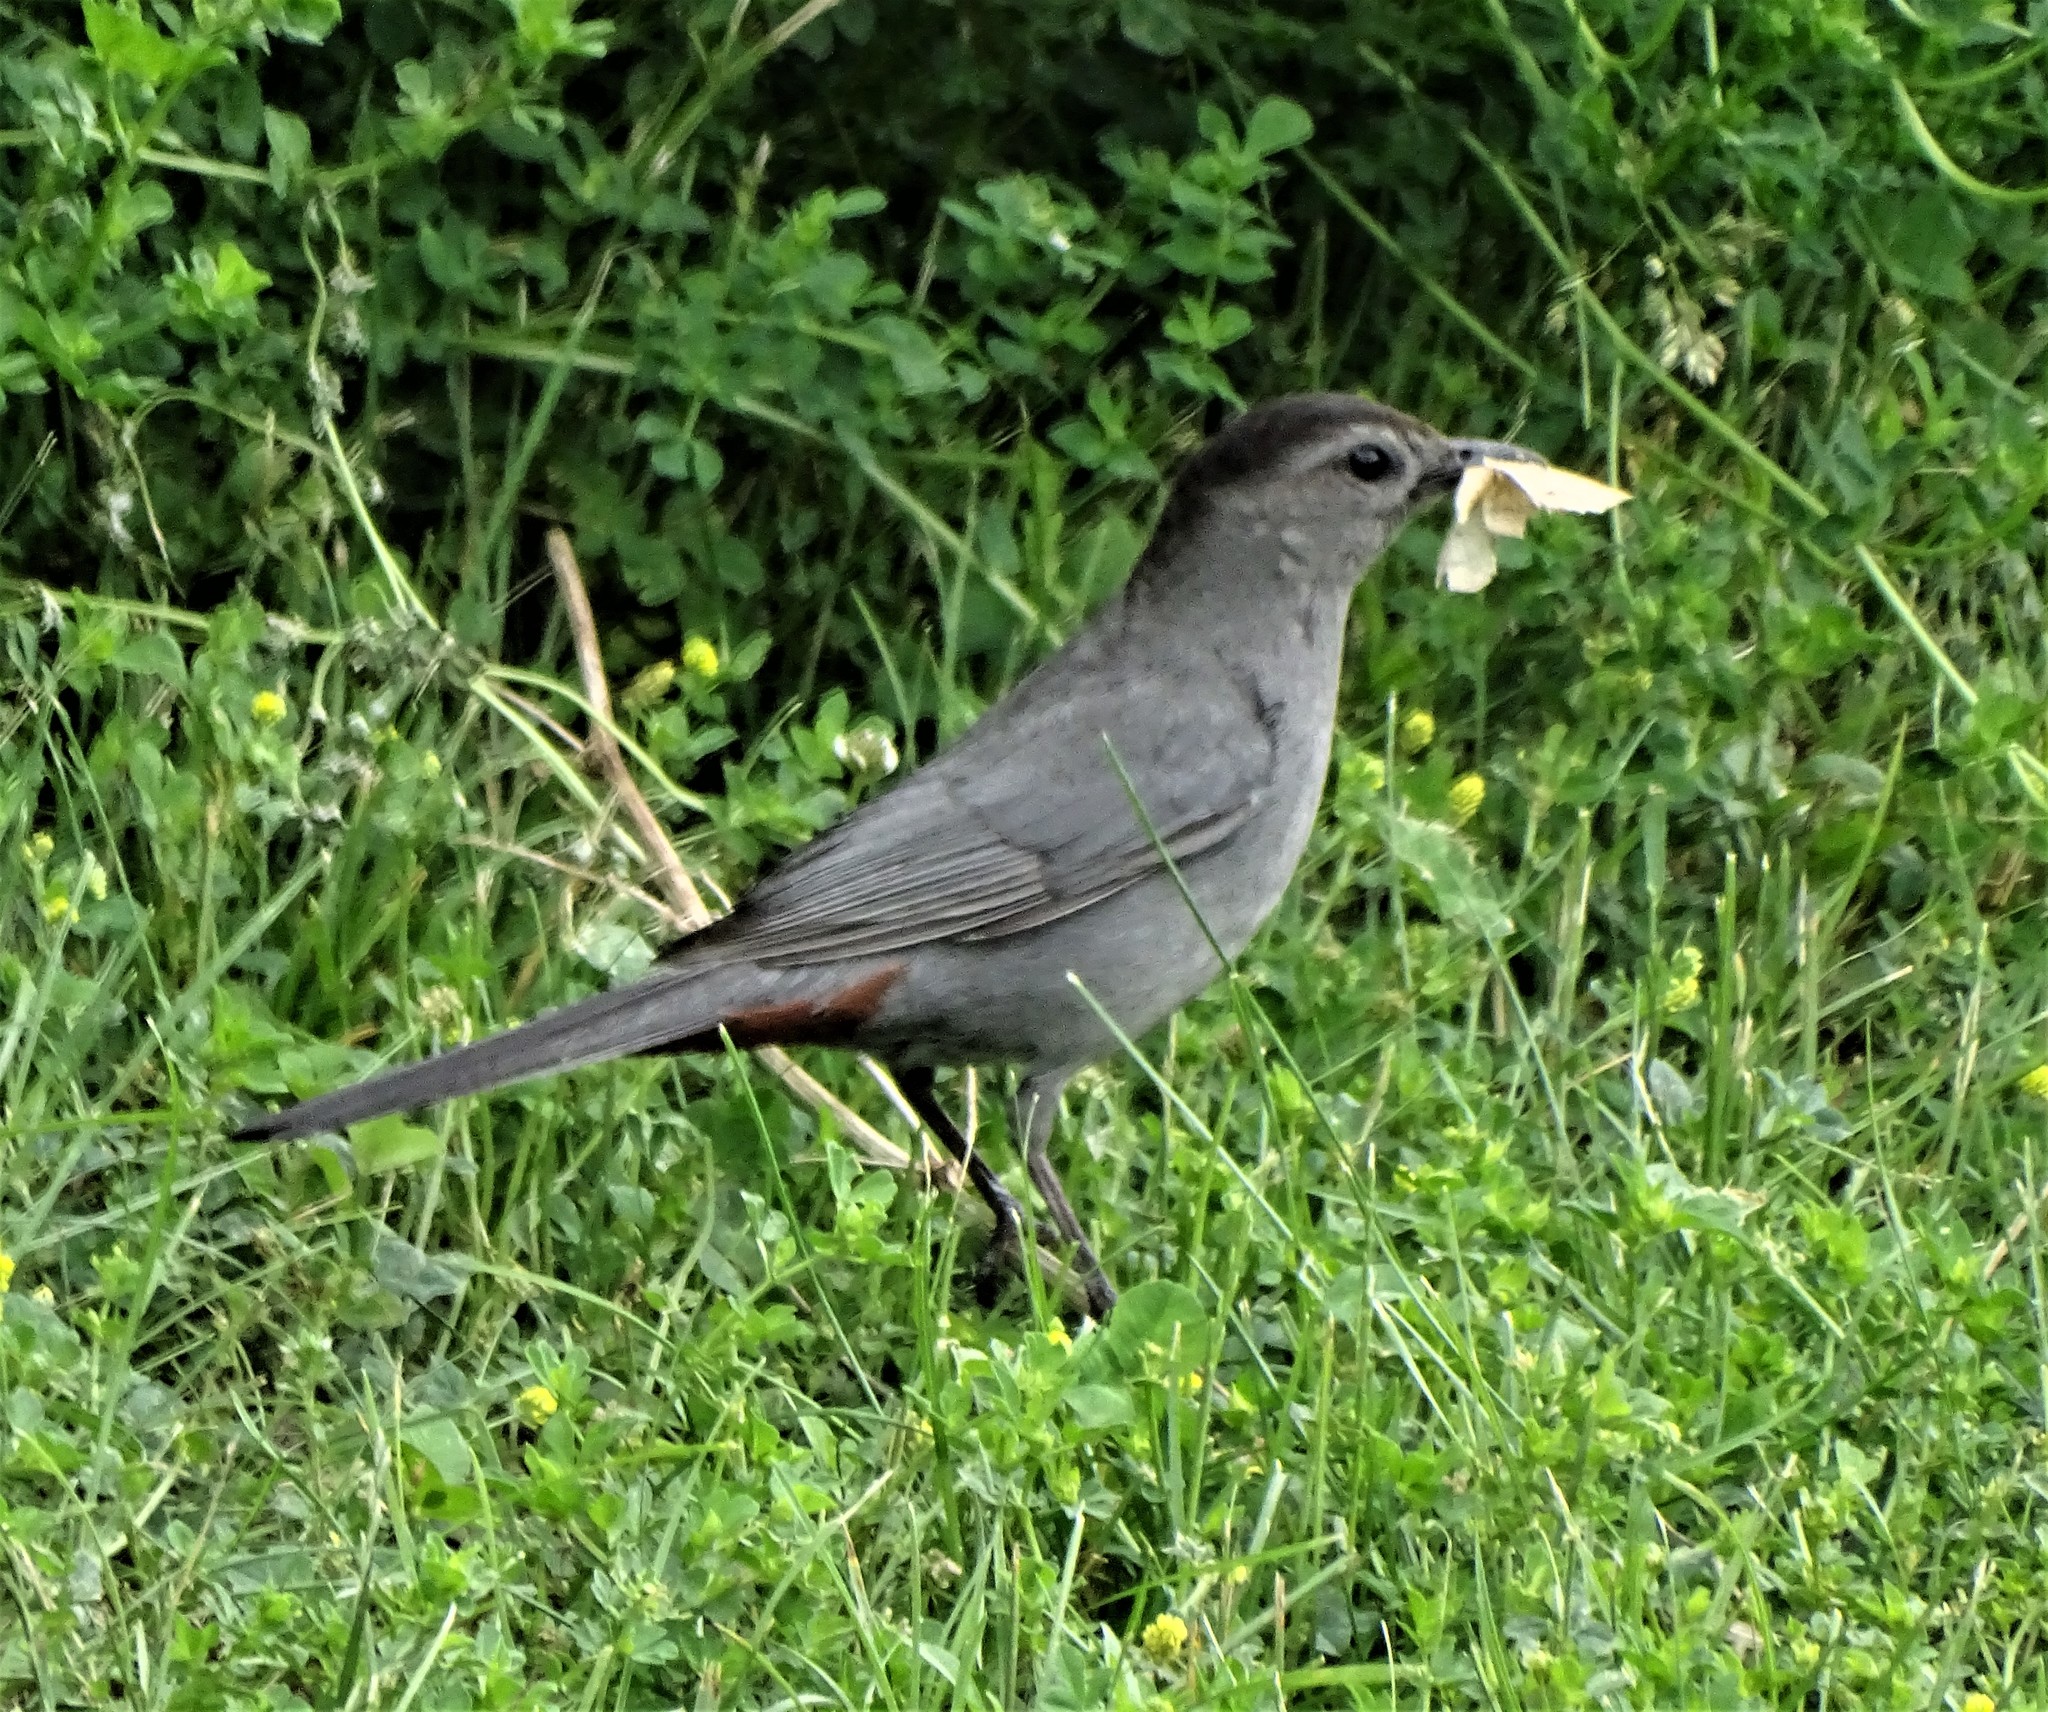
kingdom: Animalia
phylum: Chordata
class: Aves
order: Passeriformes
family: Mimidae
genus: Dumetella
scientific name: Dumetella carolinensis
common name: Gray catbird
